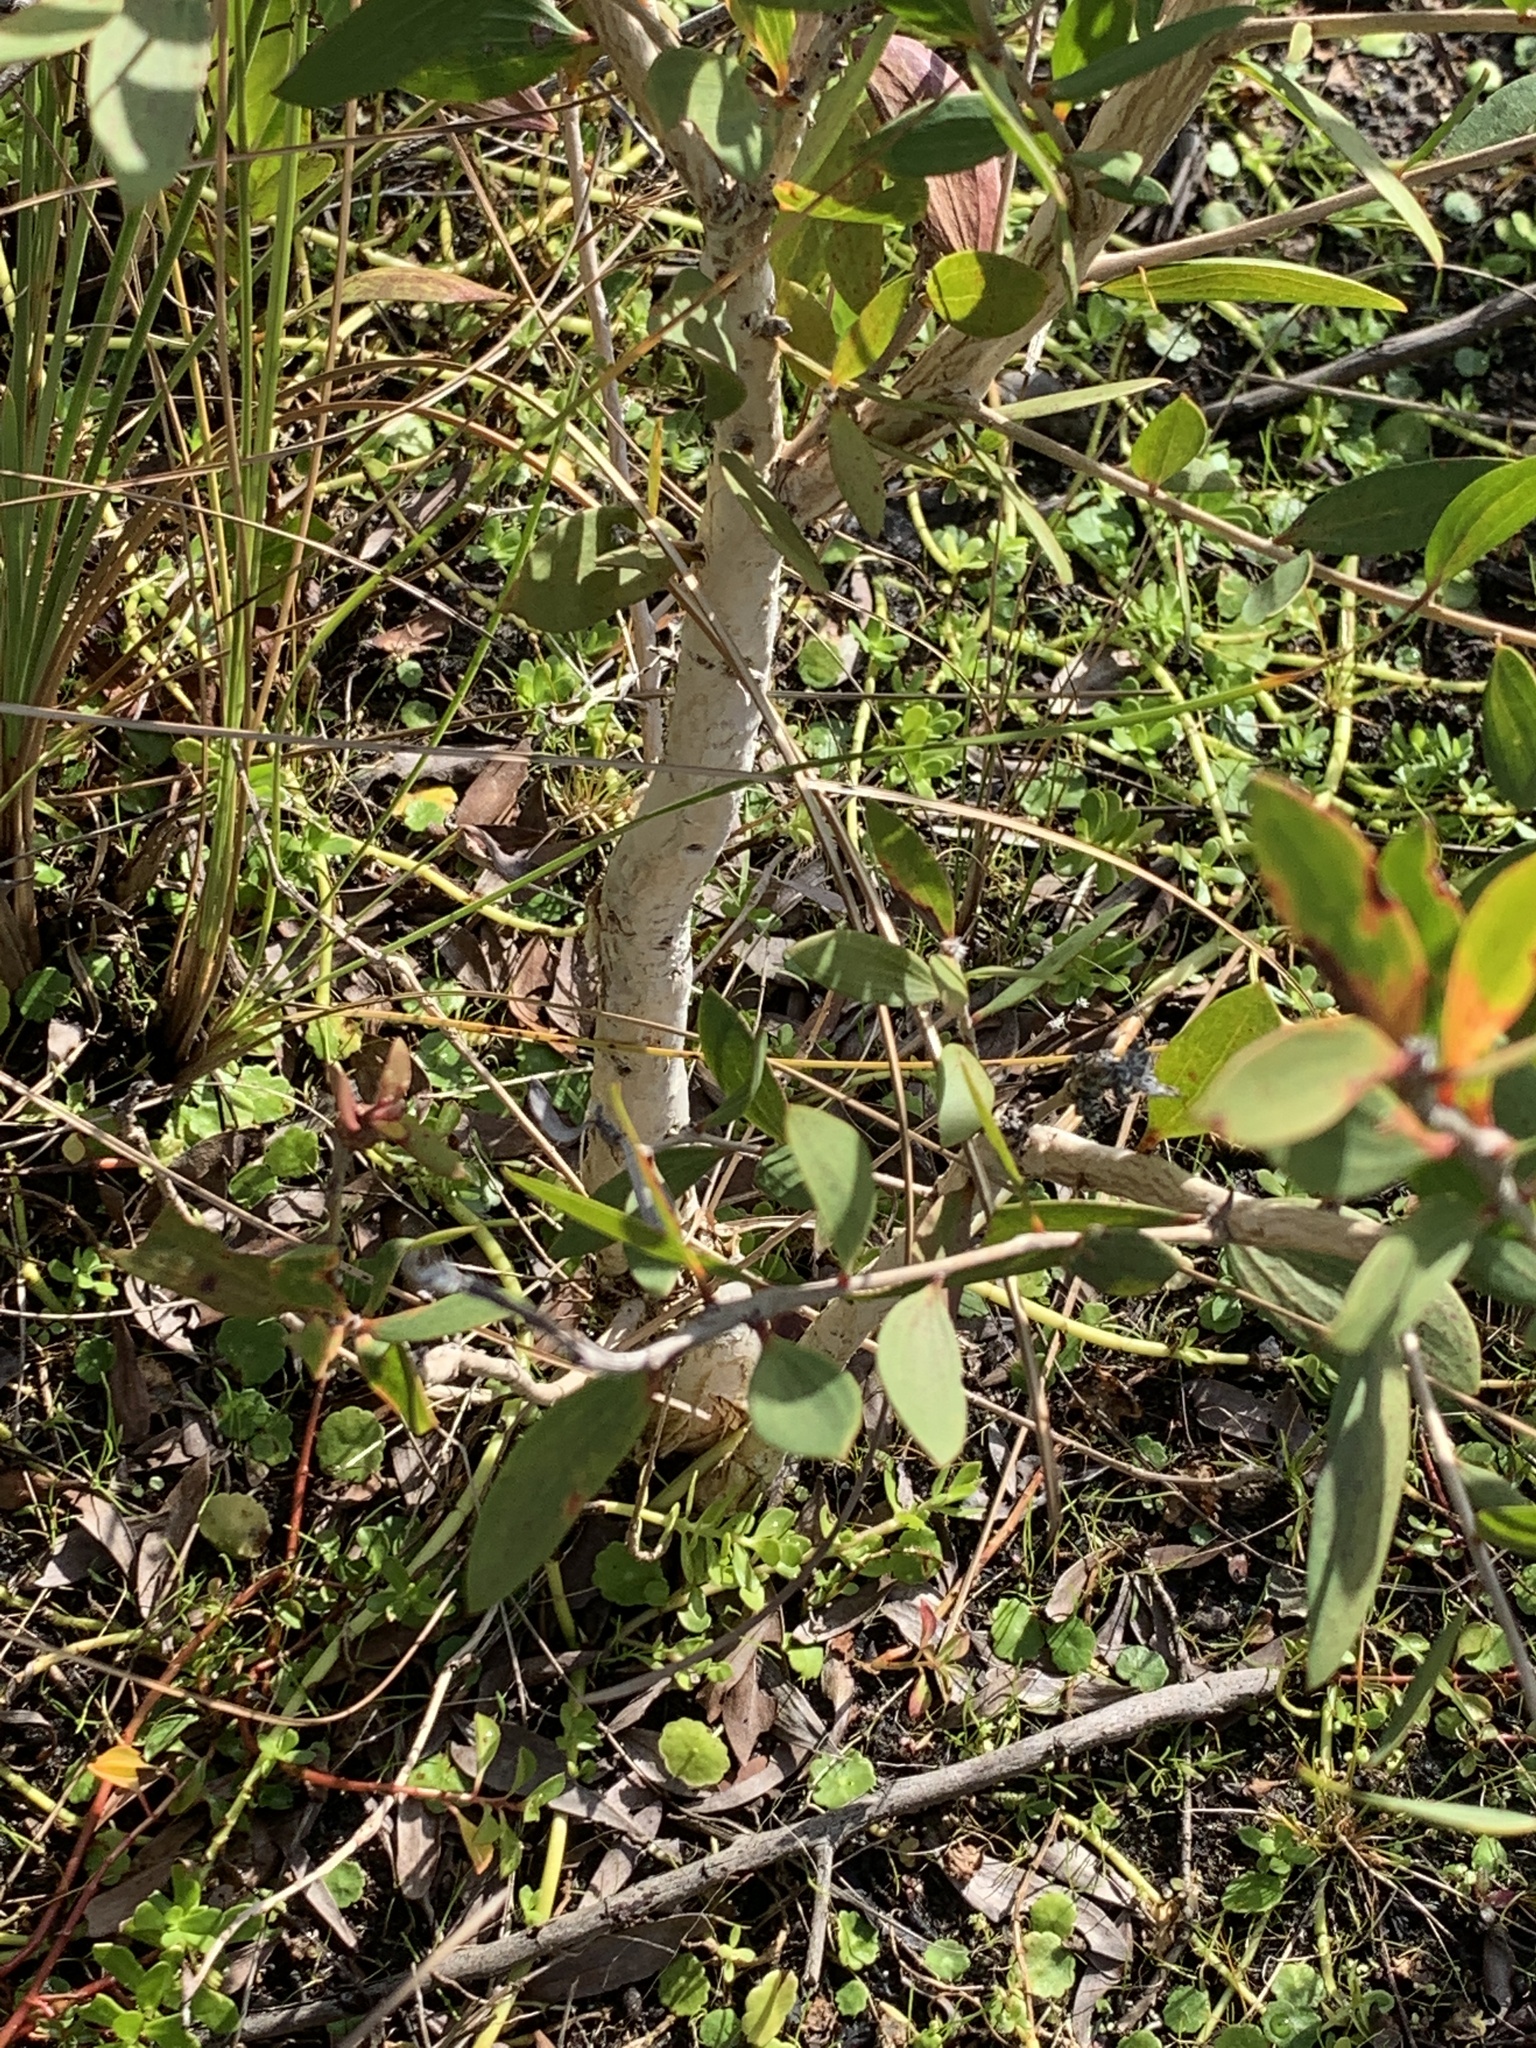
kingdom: Plantae
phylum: Tracheophyta
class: Magnoliopsida
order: Myrtales
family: Myrtaceae
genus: Melaleuca
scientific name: Melaleuca quinquenervia
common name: Punktree
